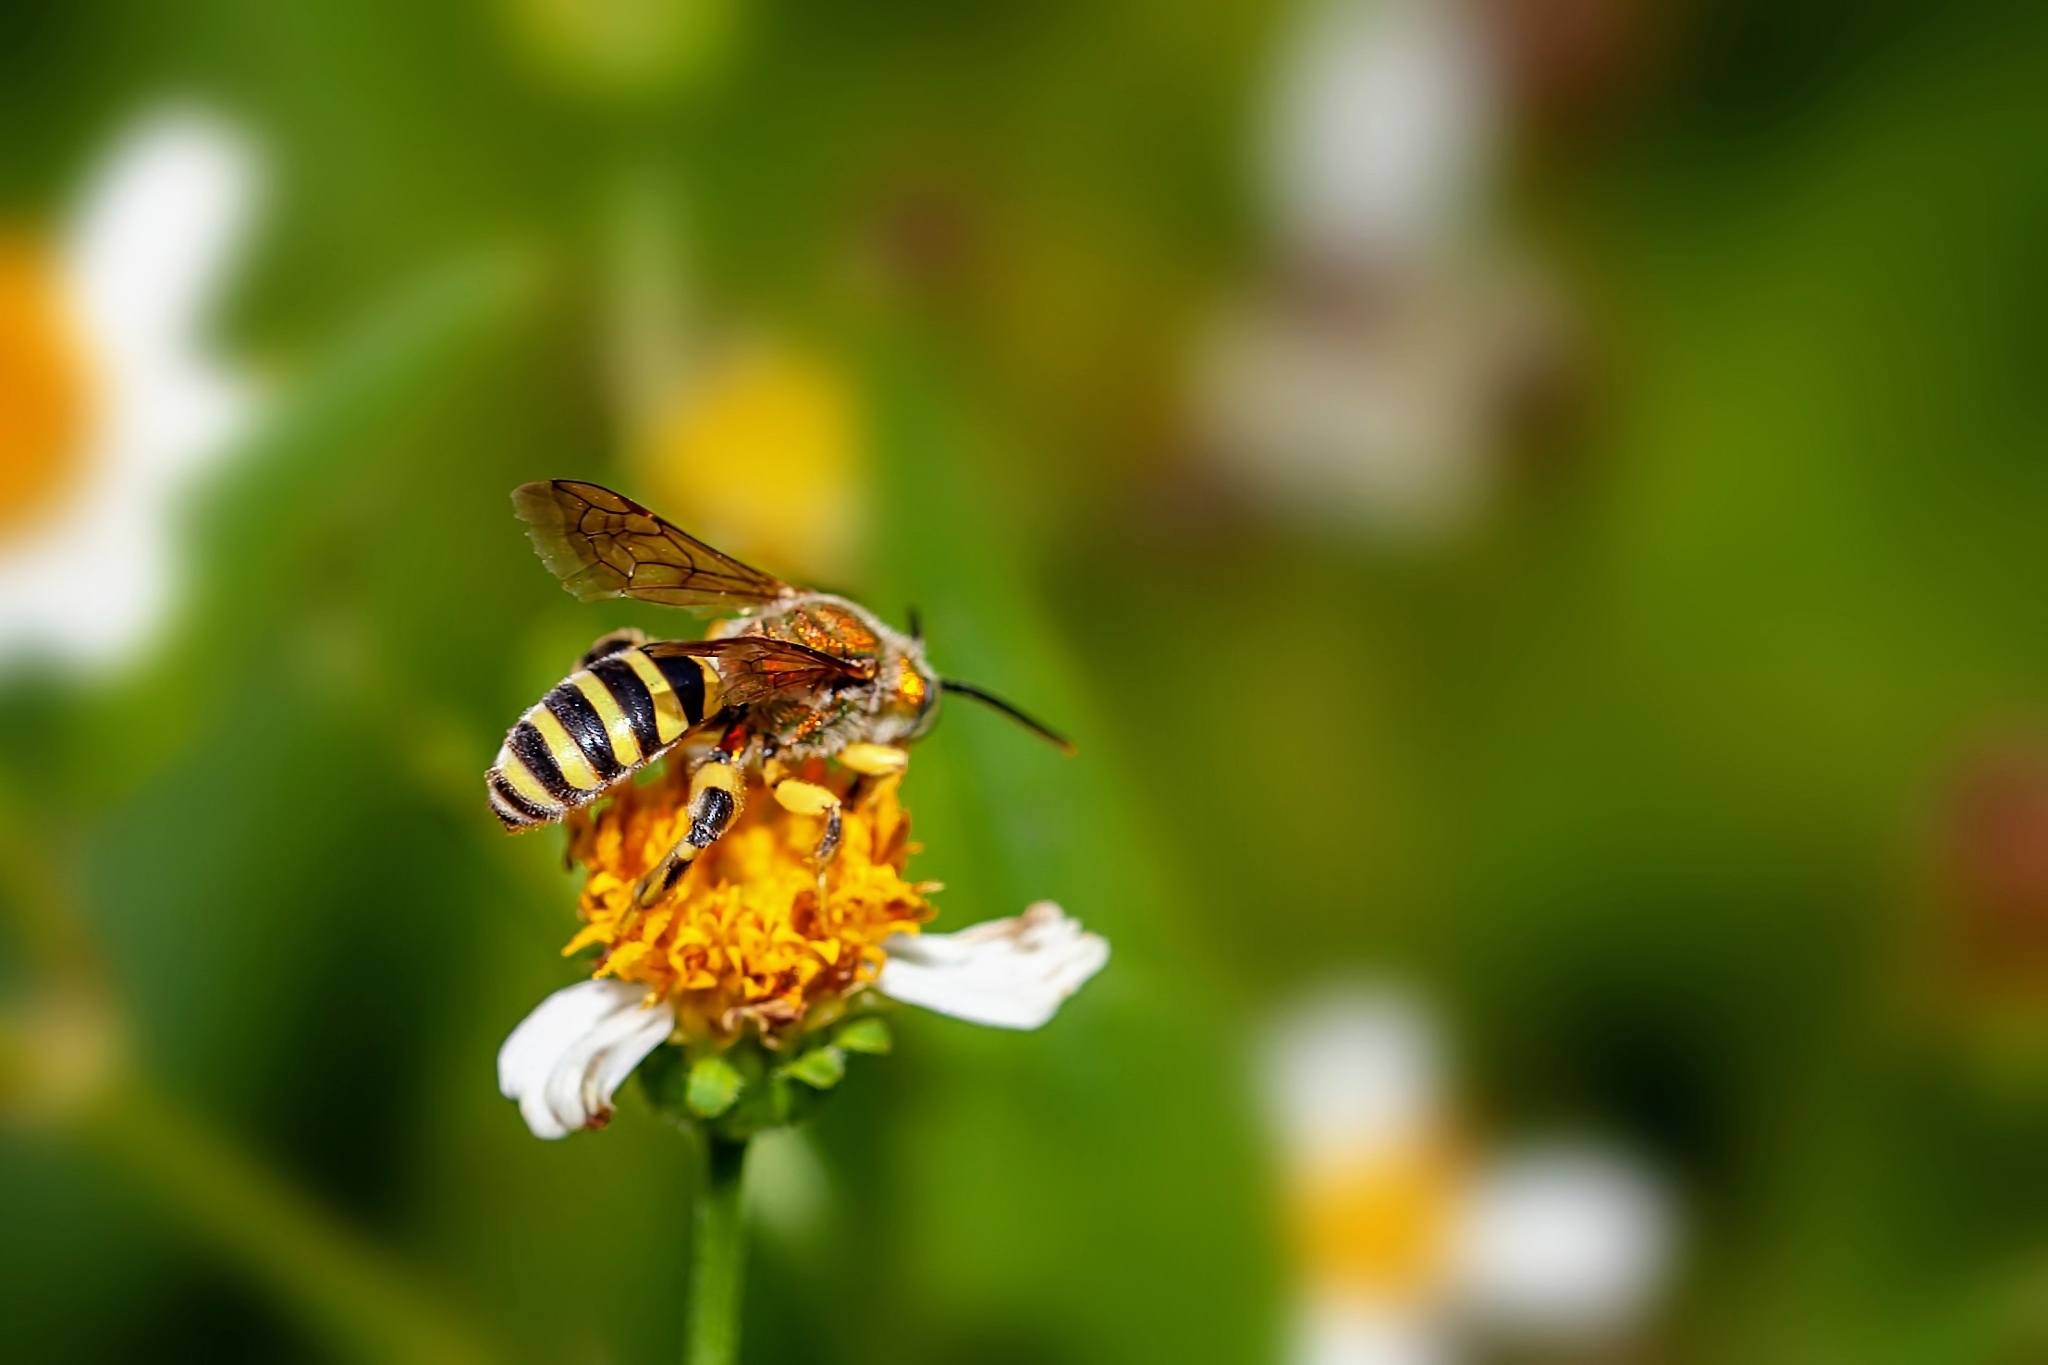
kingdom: Animalia
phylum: Arthropoda
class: Insecta
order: Hymenoptera
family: Halictidae
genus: Agapostemon
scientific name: Agapostemon splendens
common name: Brown-winged striped sweat bee
